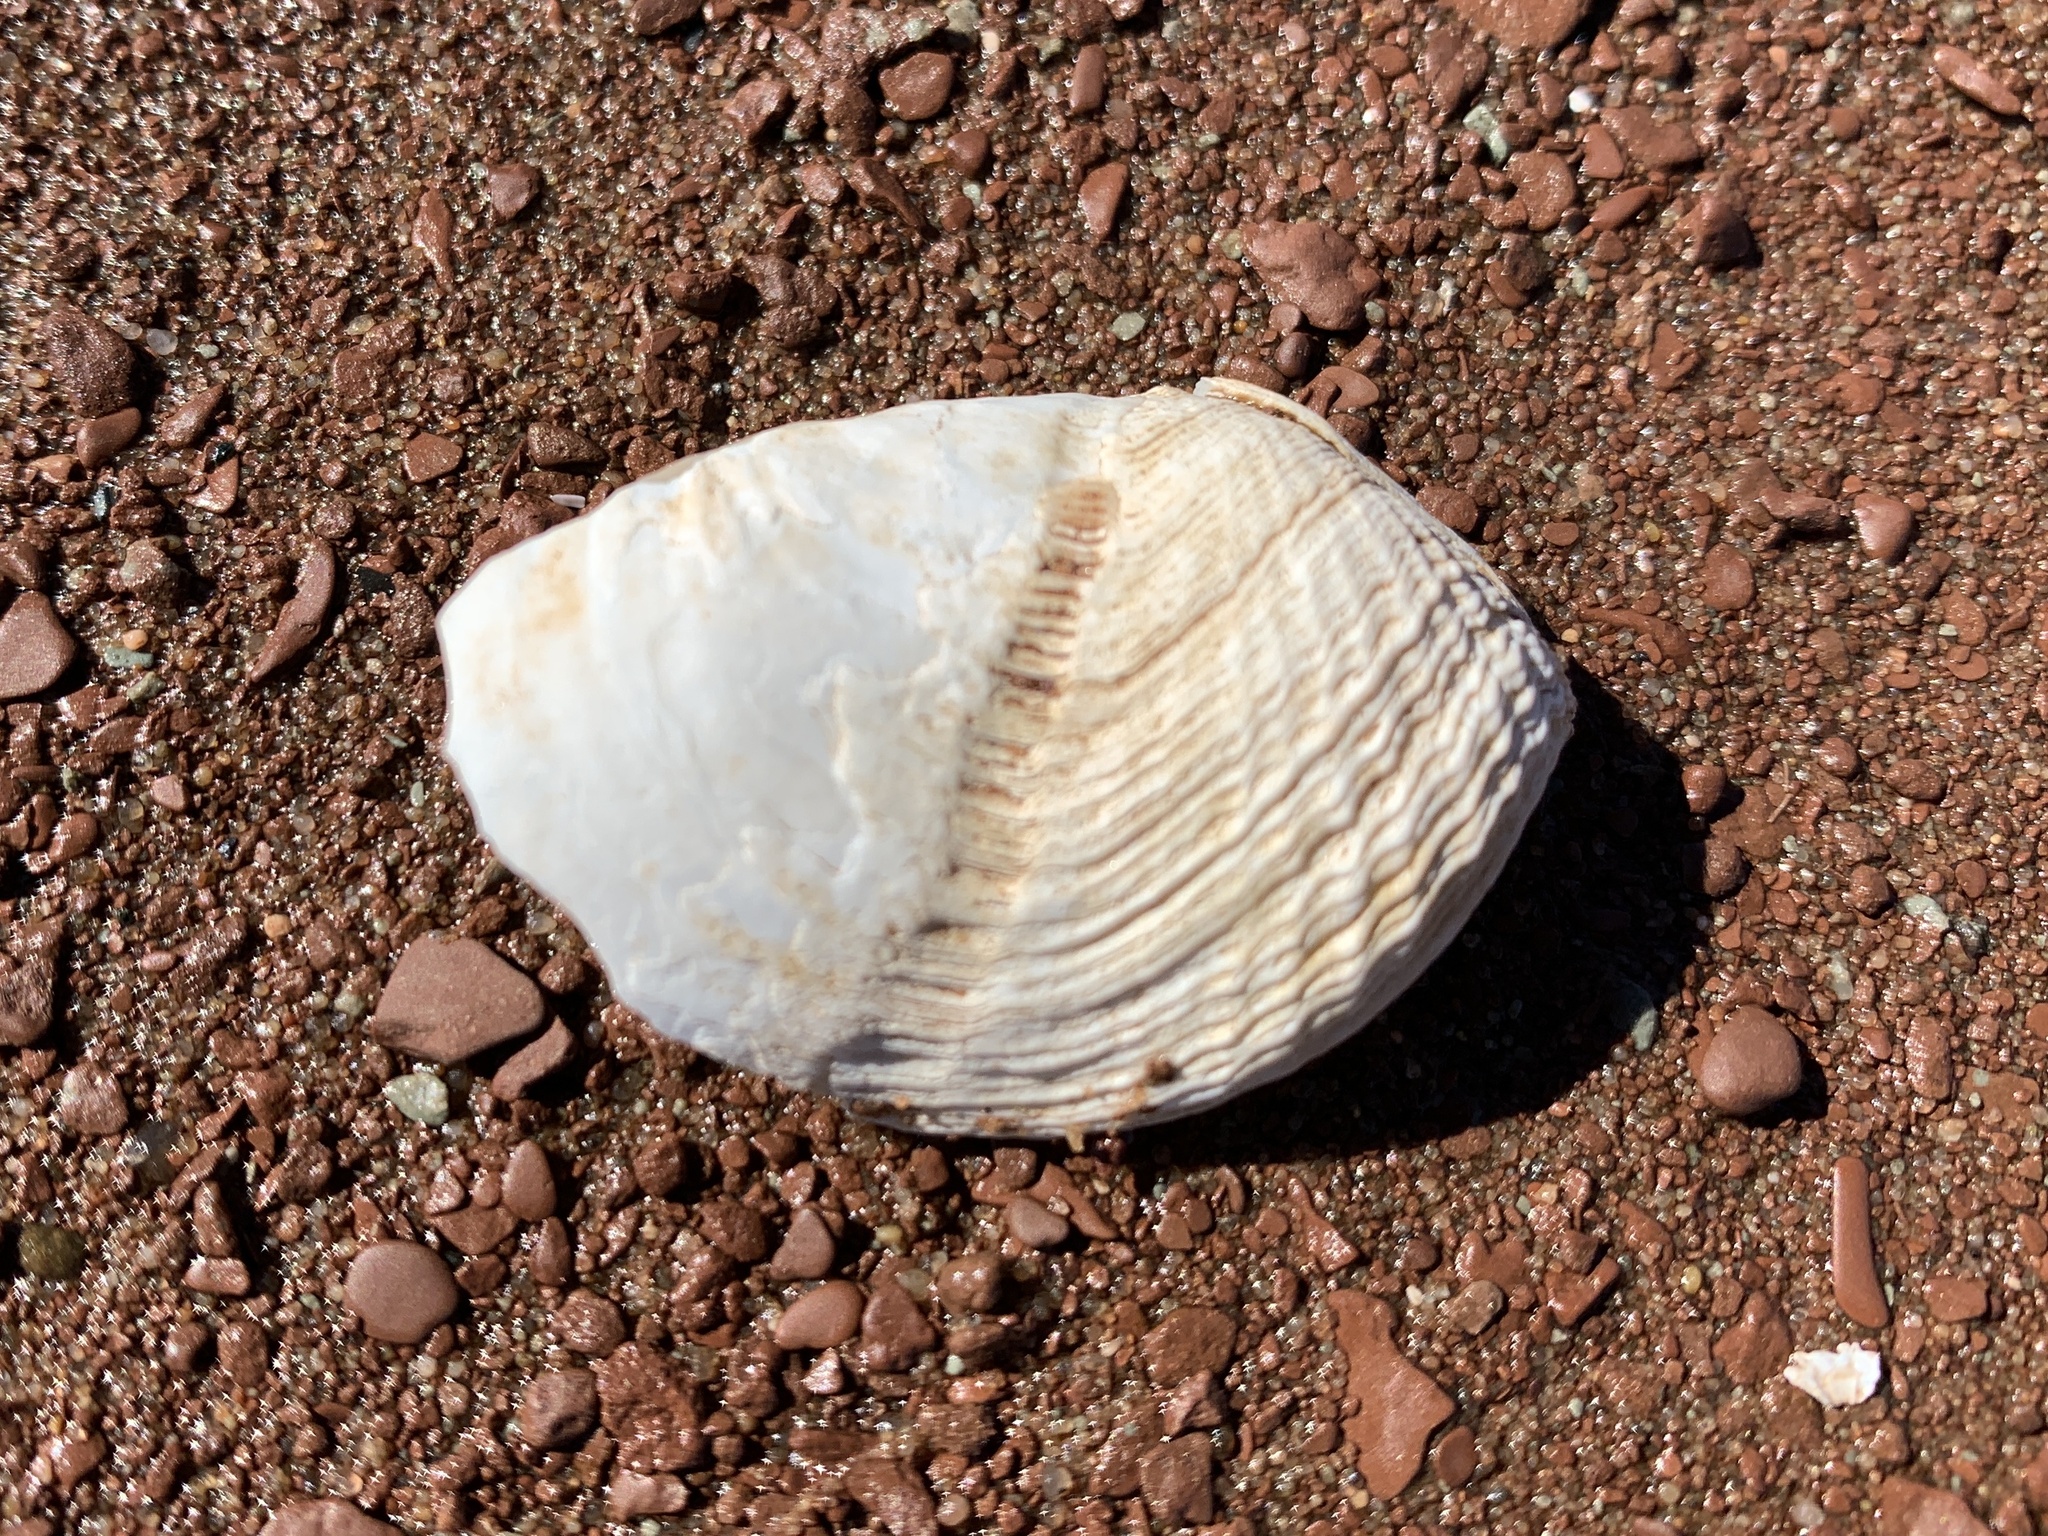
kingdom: Animalia
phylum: Mollusca
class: Bivalvia
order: Myida
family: Pholadidae
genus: Zirfaea
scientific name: Zirfaea crispata
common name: Oval piddock
